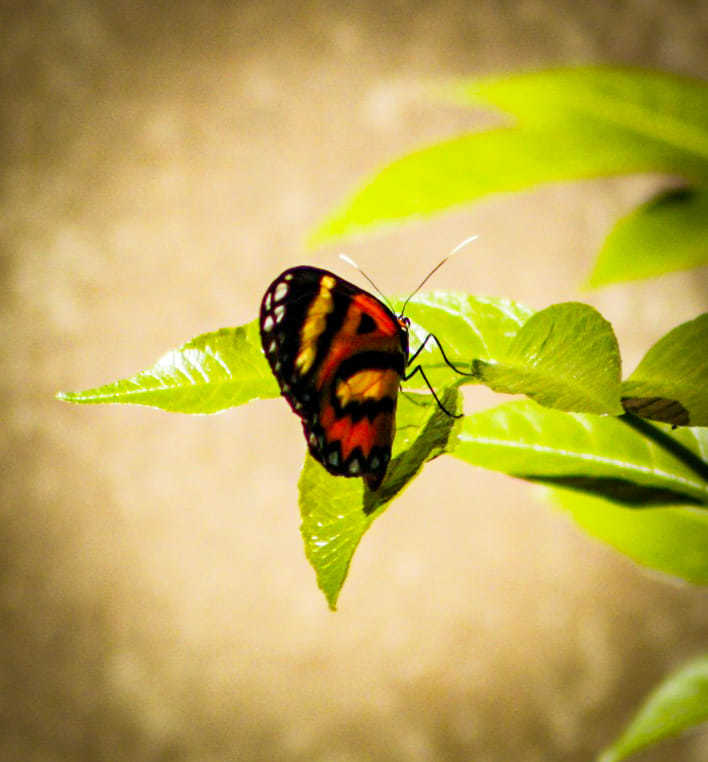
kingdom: Animalia
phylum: Arthropoda
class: Insecta
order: Lepidoptera
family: Nymphalidae
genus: Placidina
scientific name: Placidina euryanassa
